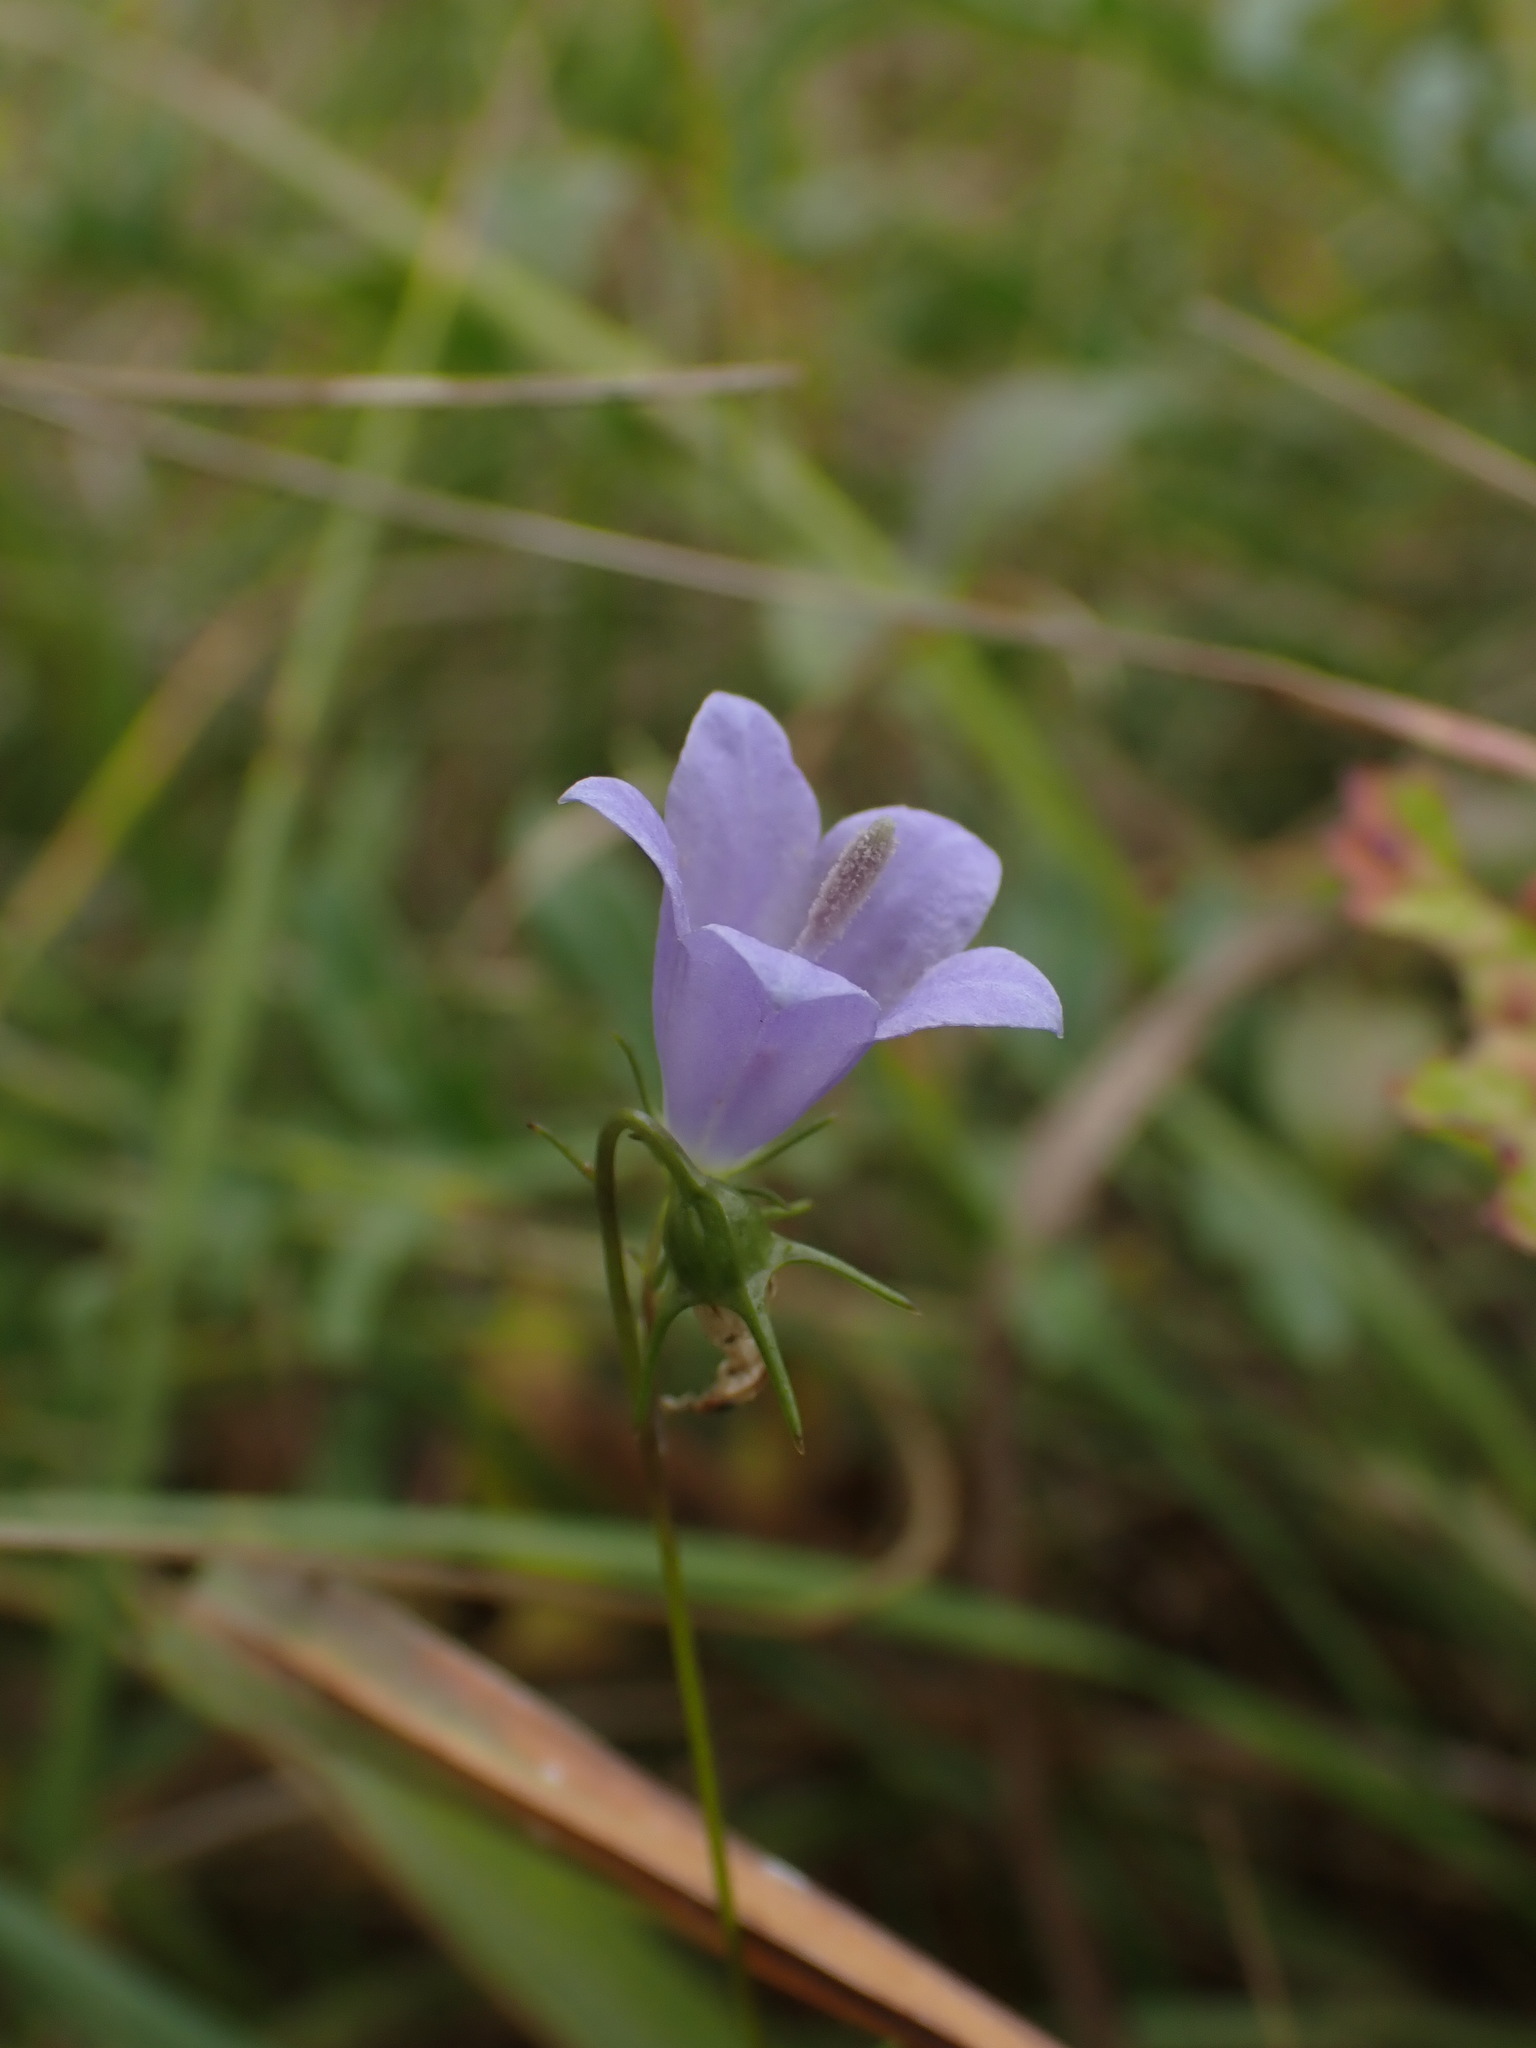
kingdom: Plantae
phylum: Tracheophyta
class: Magnoliopsida
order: Asterales
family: Campanulaceae
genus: Campanula
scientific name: Campanula rotundifolia
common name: Harebell
